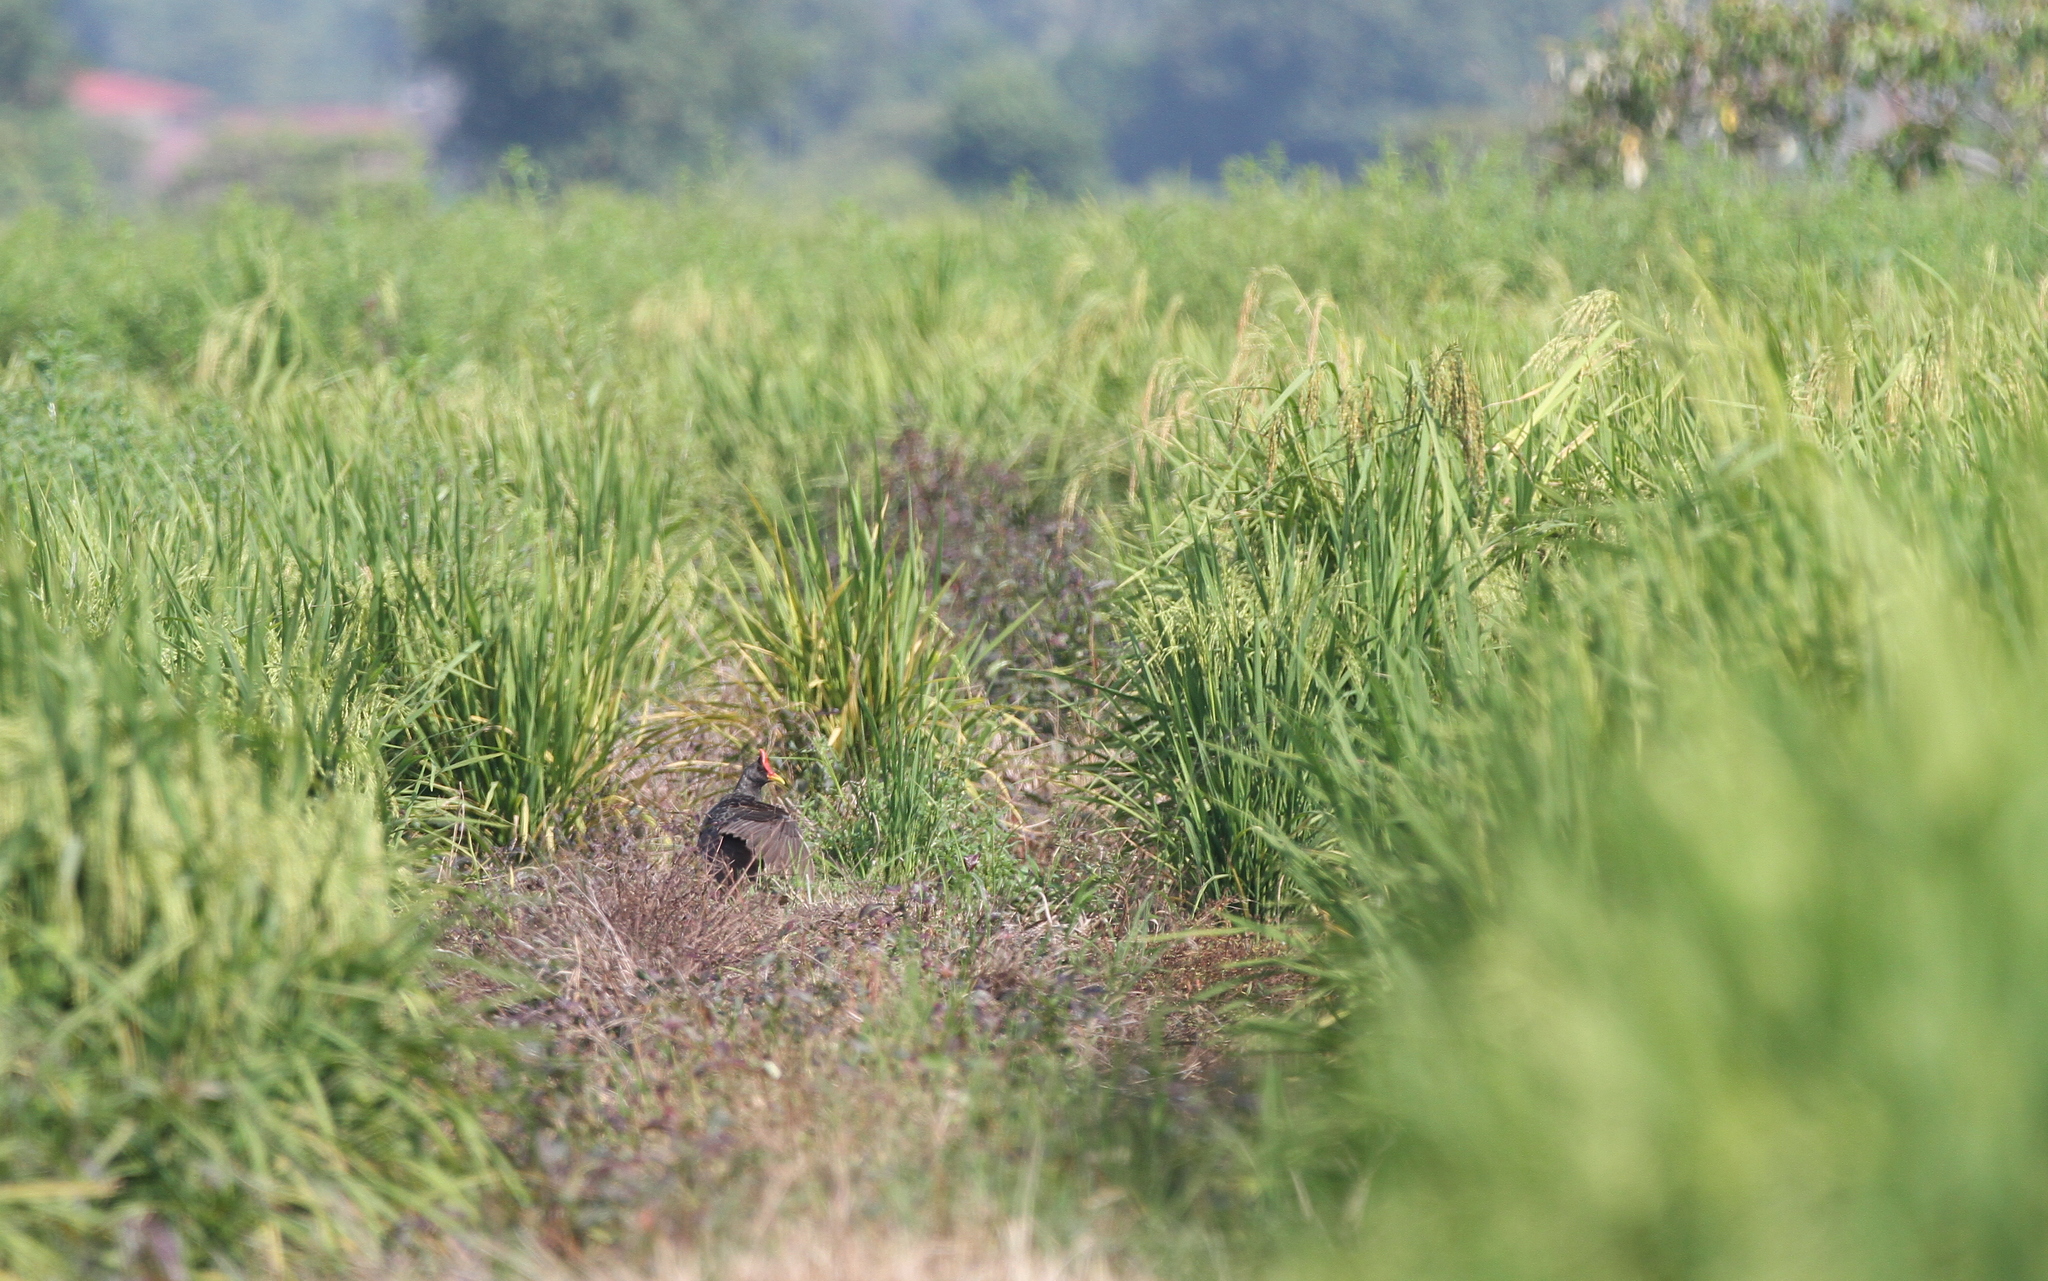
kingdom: Animalia
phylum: Chordata
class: Aves
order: Gruiformes
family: Rallidae
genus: Gallicrex
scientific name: Gallicrex cinerea
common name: Watercock
